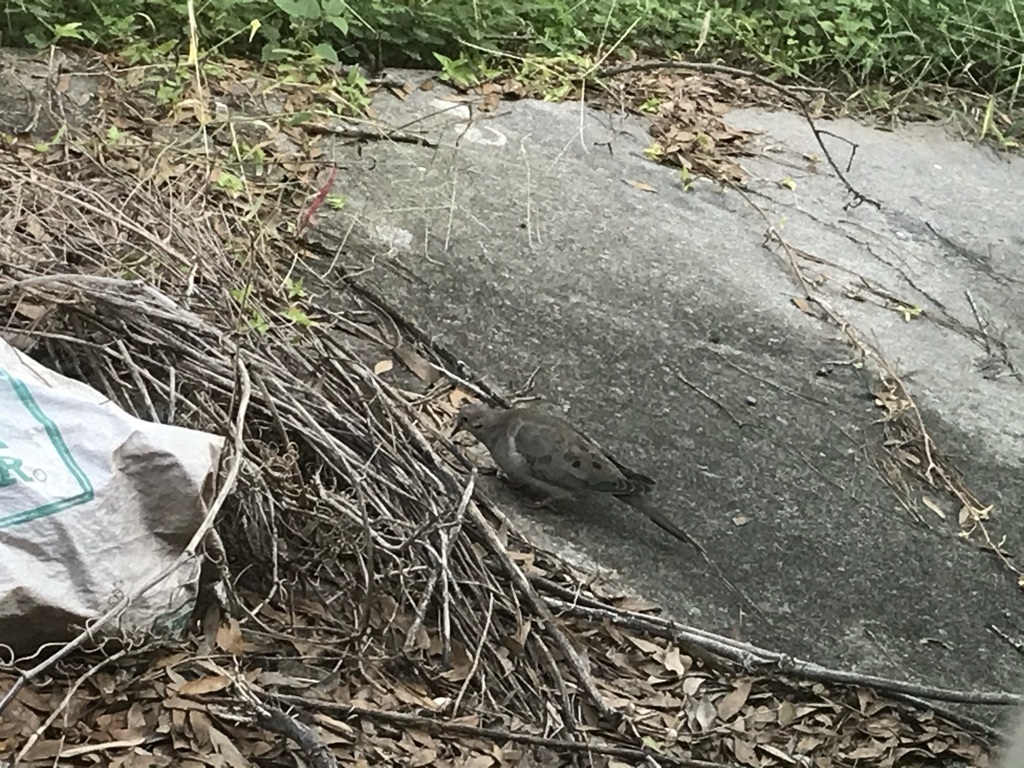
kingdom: Animalia
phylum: Chordata
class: Aves
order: Columbiformes
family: Columbidae
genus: Zenaida
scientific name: Zenaida macroura
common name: Mourning dove
